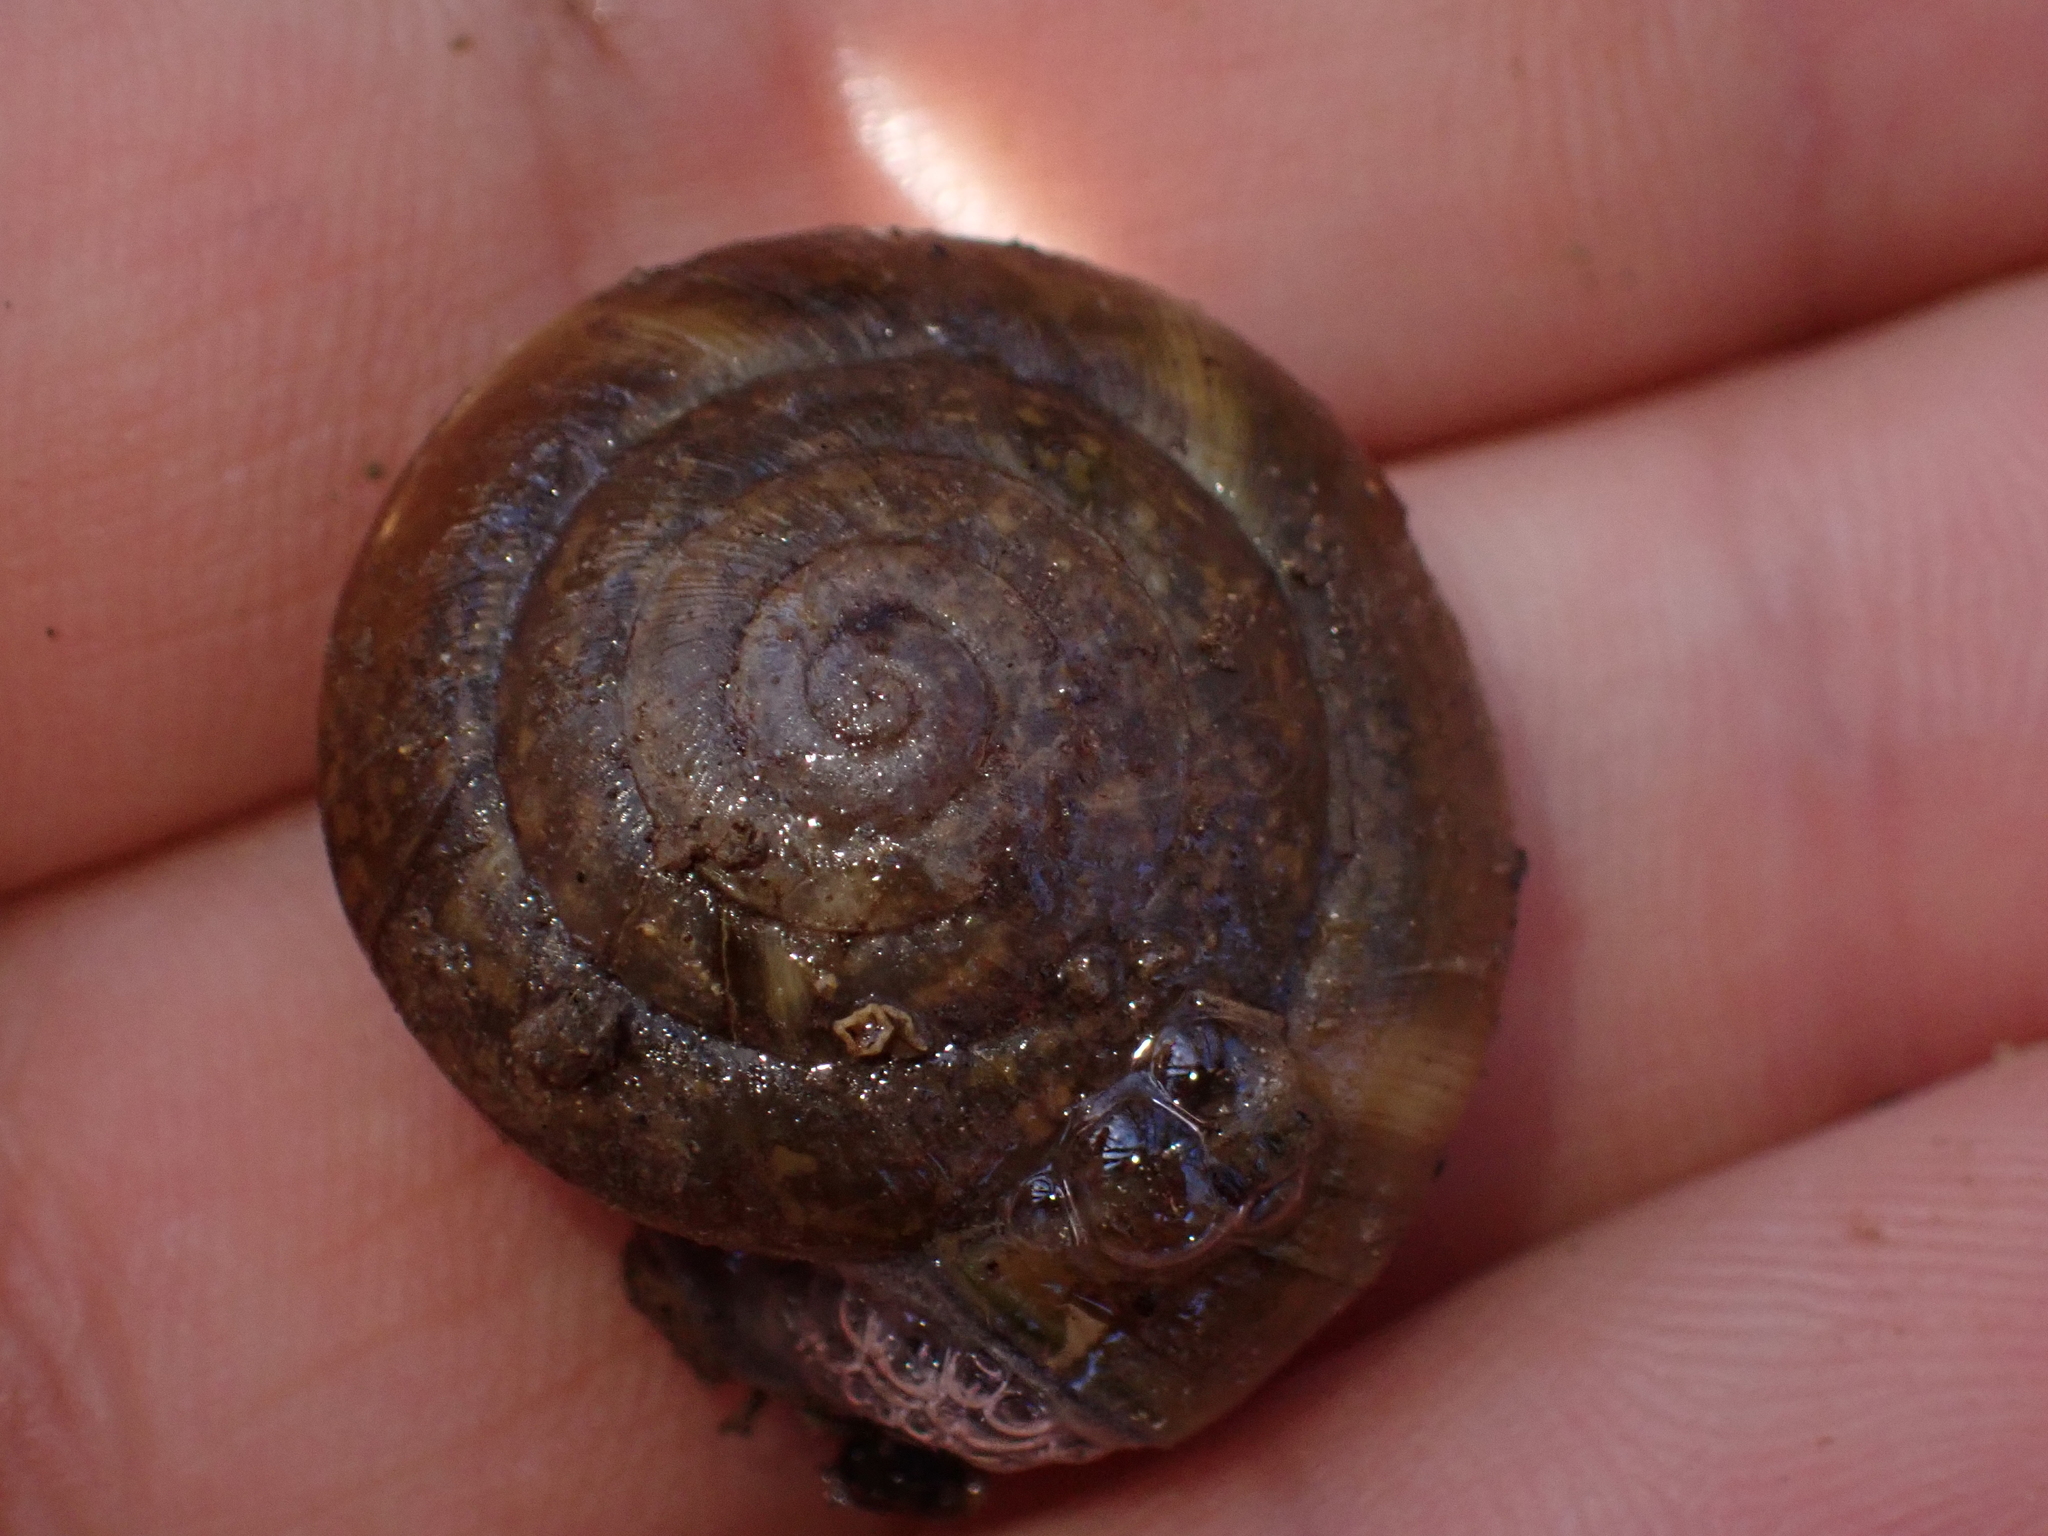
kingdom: Animalia
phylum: Mollusca
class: Gastropoda
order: Stylommatophora
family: Zonitidae
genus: Aegopis
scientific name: Aegopis verticillus
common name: Giant glass snail
